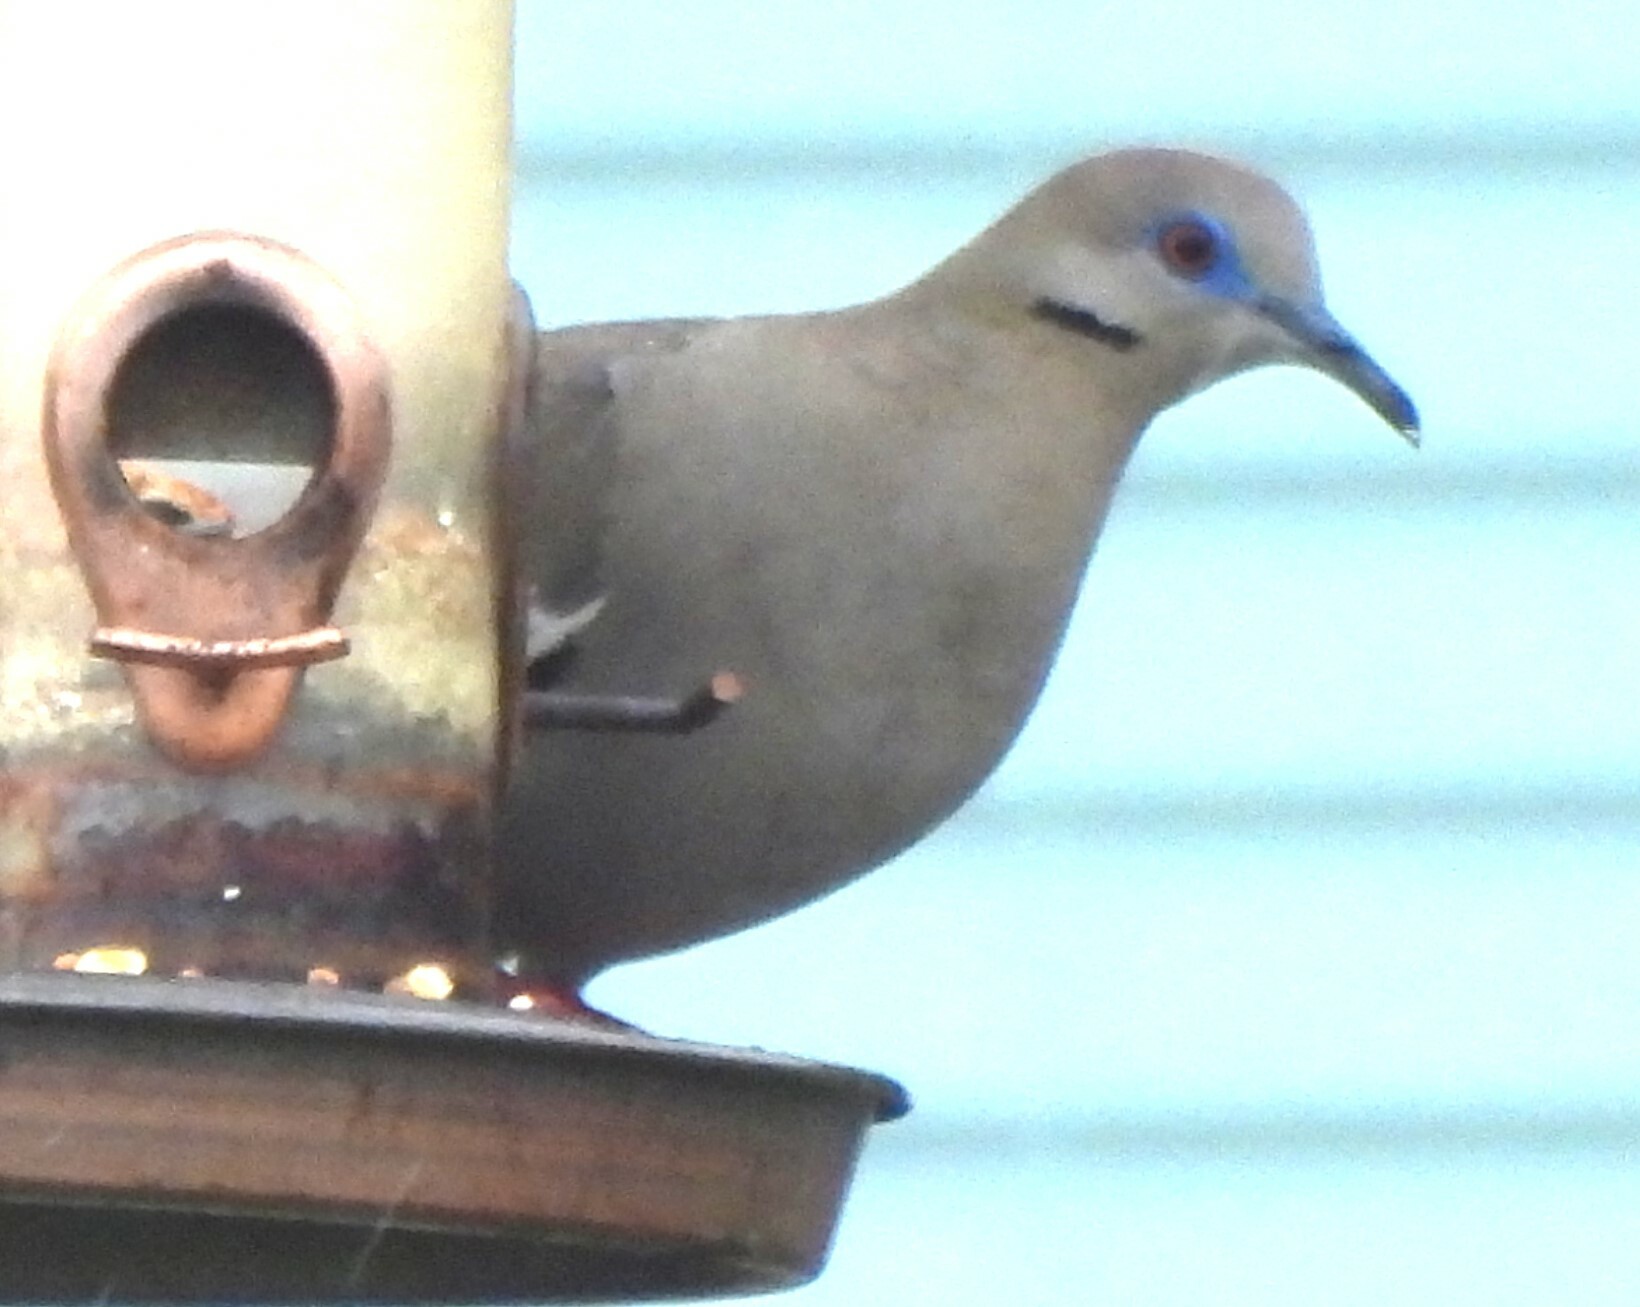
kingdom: Animalia
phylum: Chordata
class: Aves
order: Columbiformes
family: Columbidae
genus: Zenaida
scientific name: Zenaida asiatica
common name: White-winged dove
